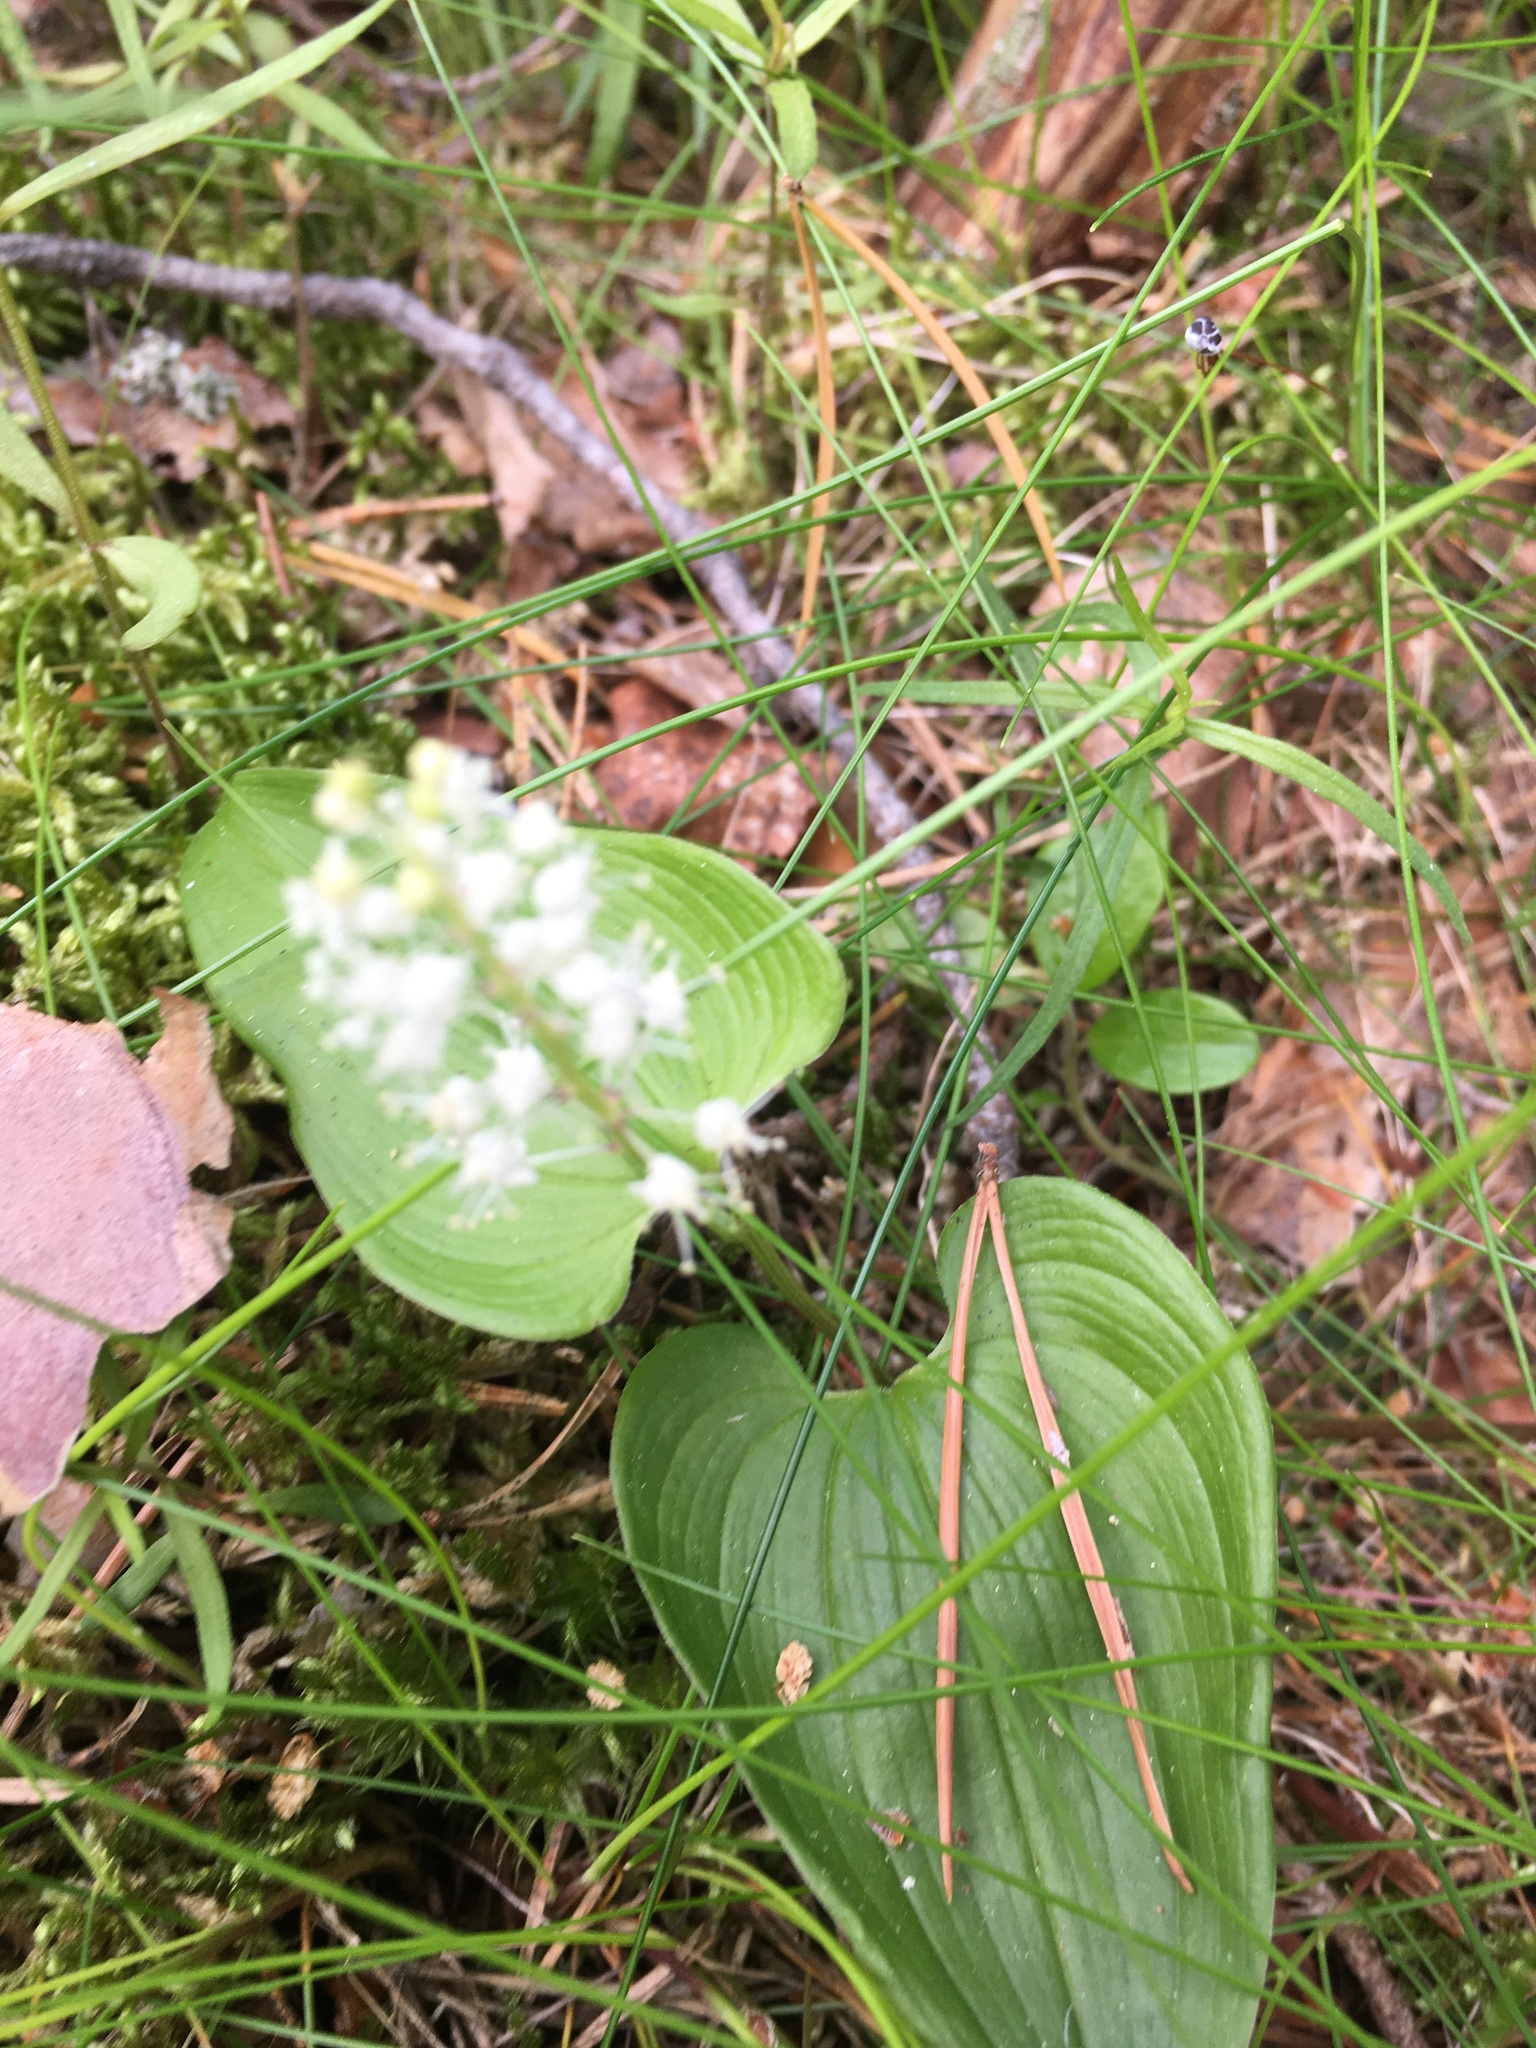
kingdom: Plantae
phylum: Tracheophyta
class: Liliopsida
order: Asparagales
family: Asparagaceae
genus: Maianthemum
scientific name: Maianthemum bifolium
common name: May lily
